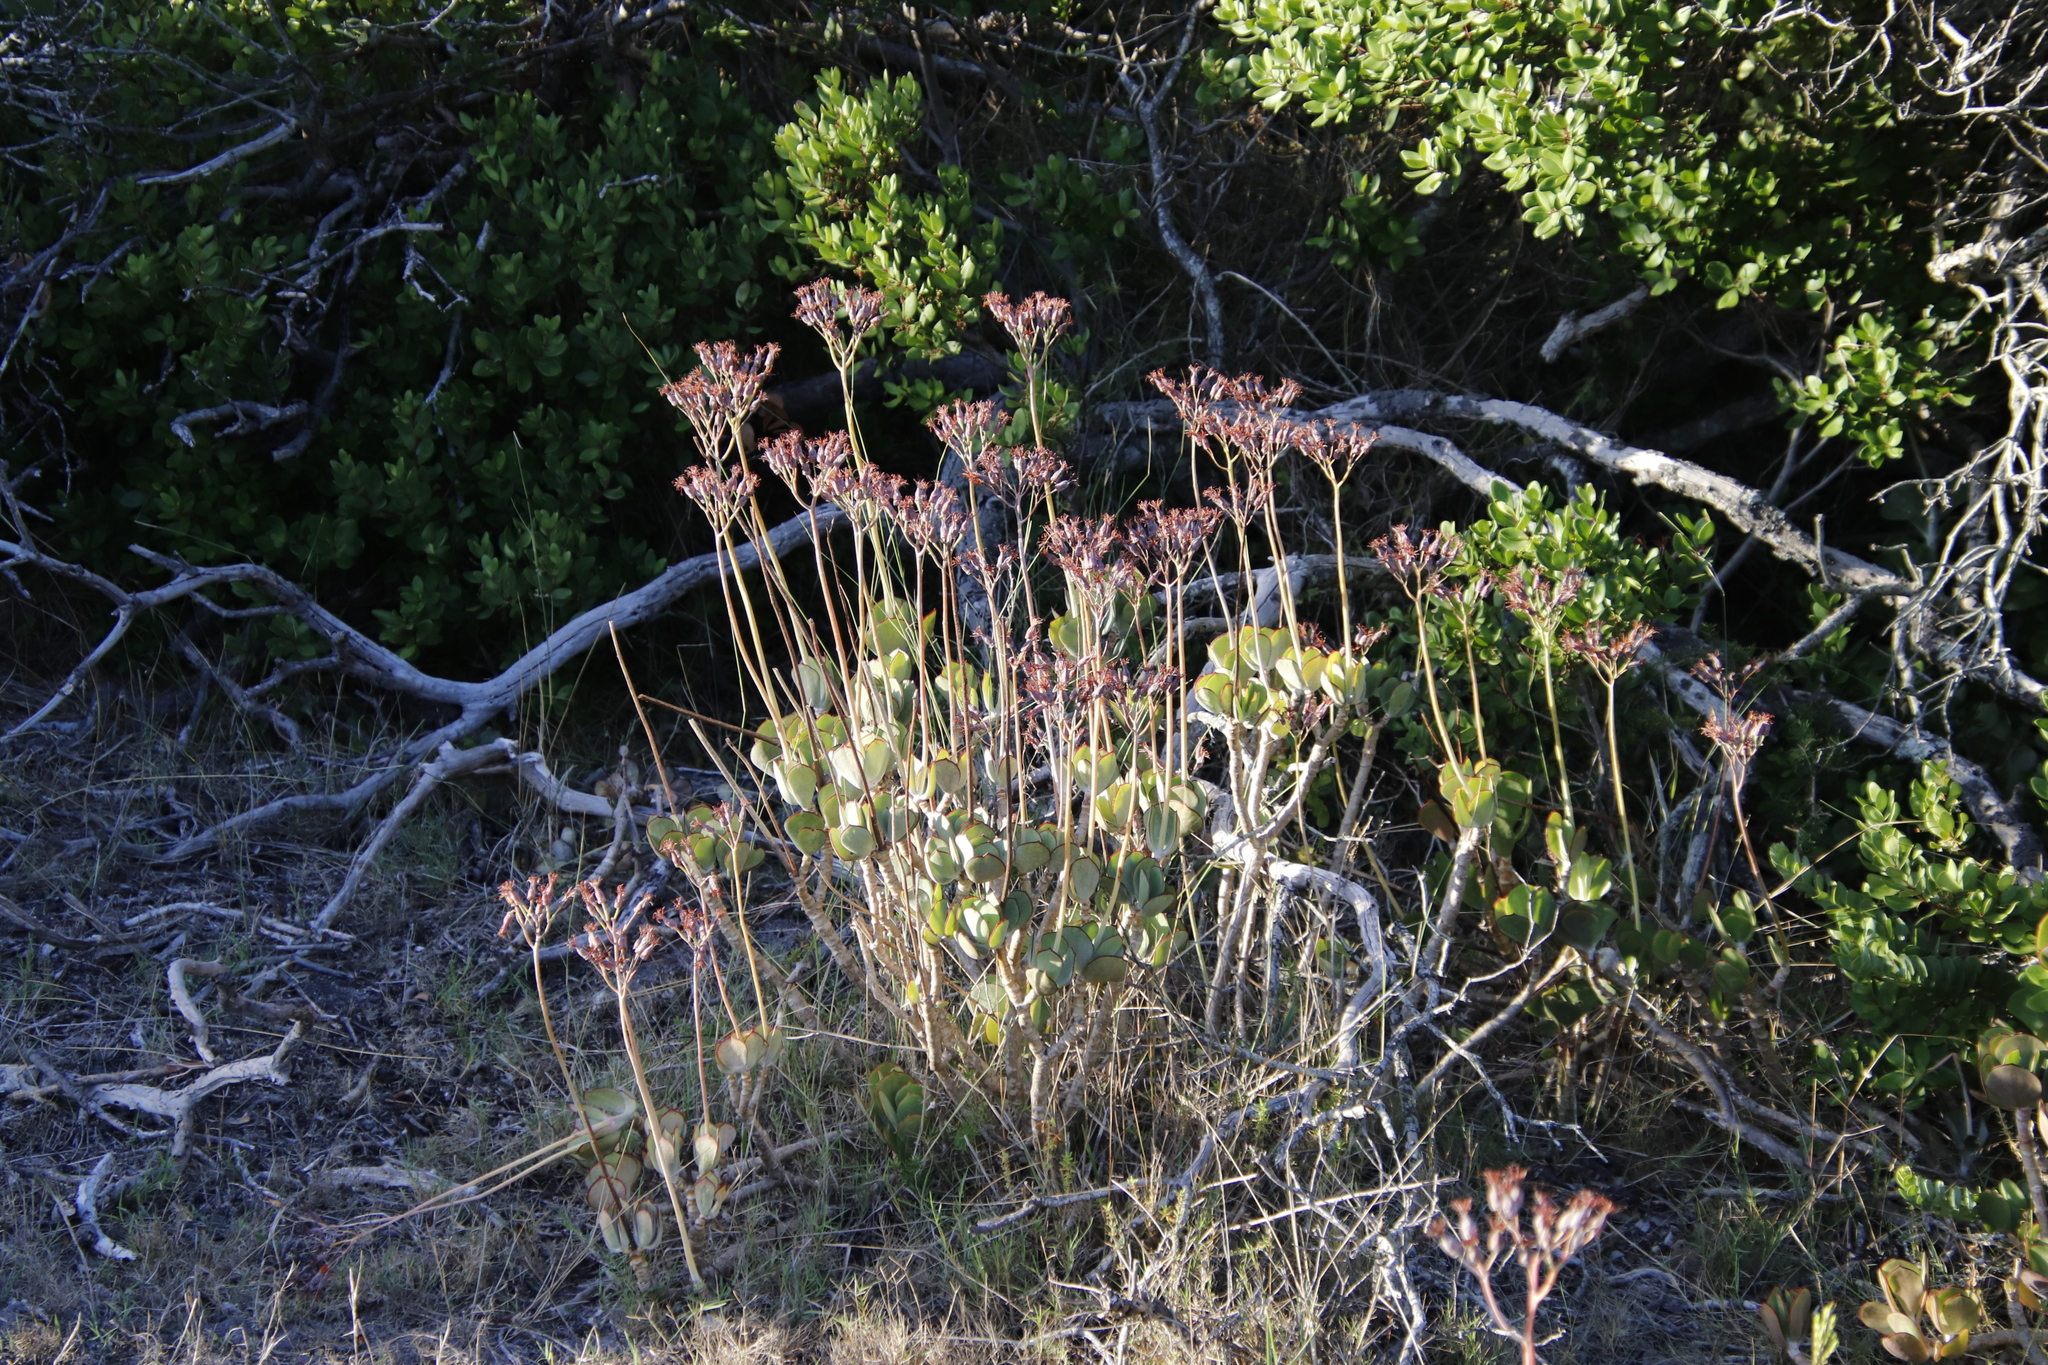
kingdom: Plantae
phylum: Tracheophyta
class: Magnoliopsida
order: Saxifragales
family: Crassulaceae
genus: Cotyledon
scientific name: Cotyledon orbiculata
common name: Pig's ear
